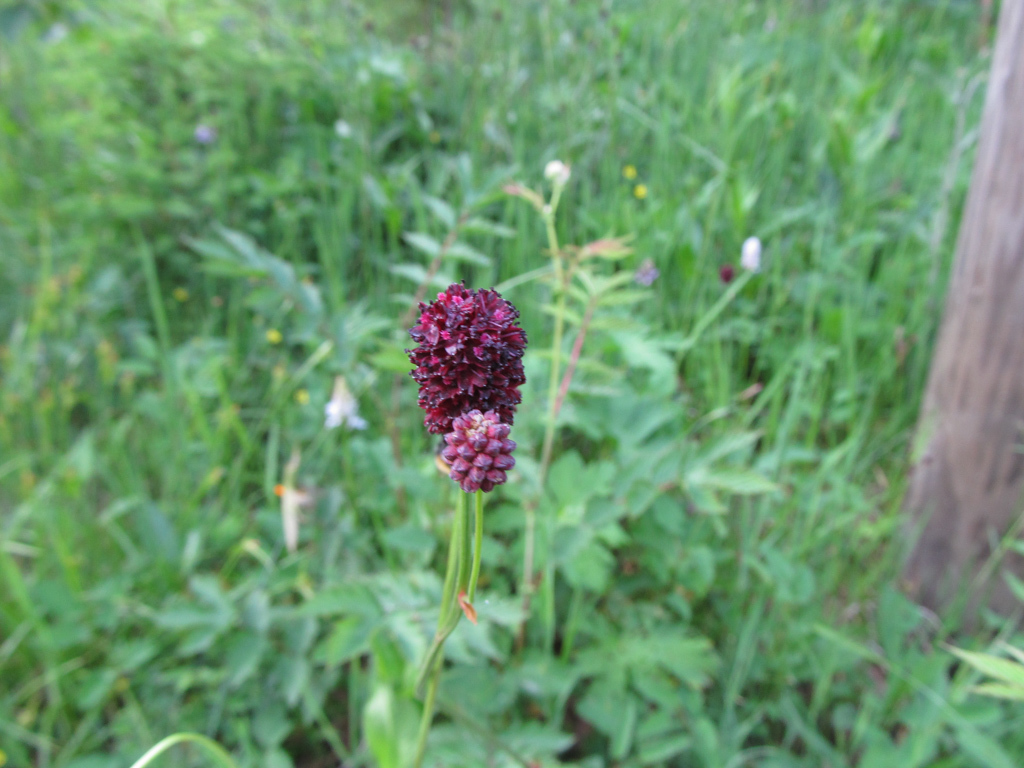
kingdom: Plantae
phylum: Tracheophyta
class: Magnoliopsida
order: Rosales
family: Rosaceae
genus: Sanguisorba
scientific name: Sanguisorba officinalis
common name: Great burnet
